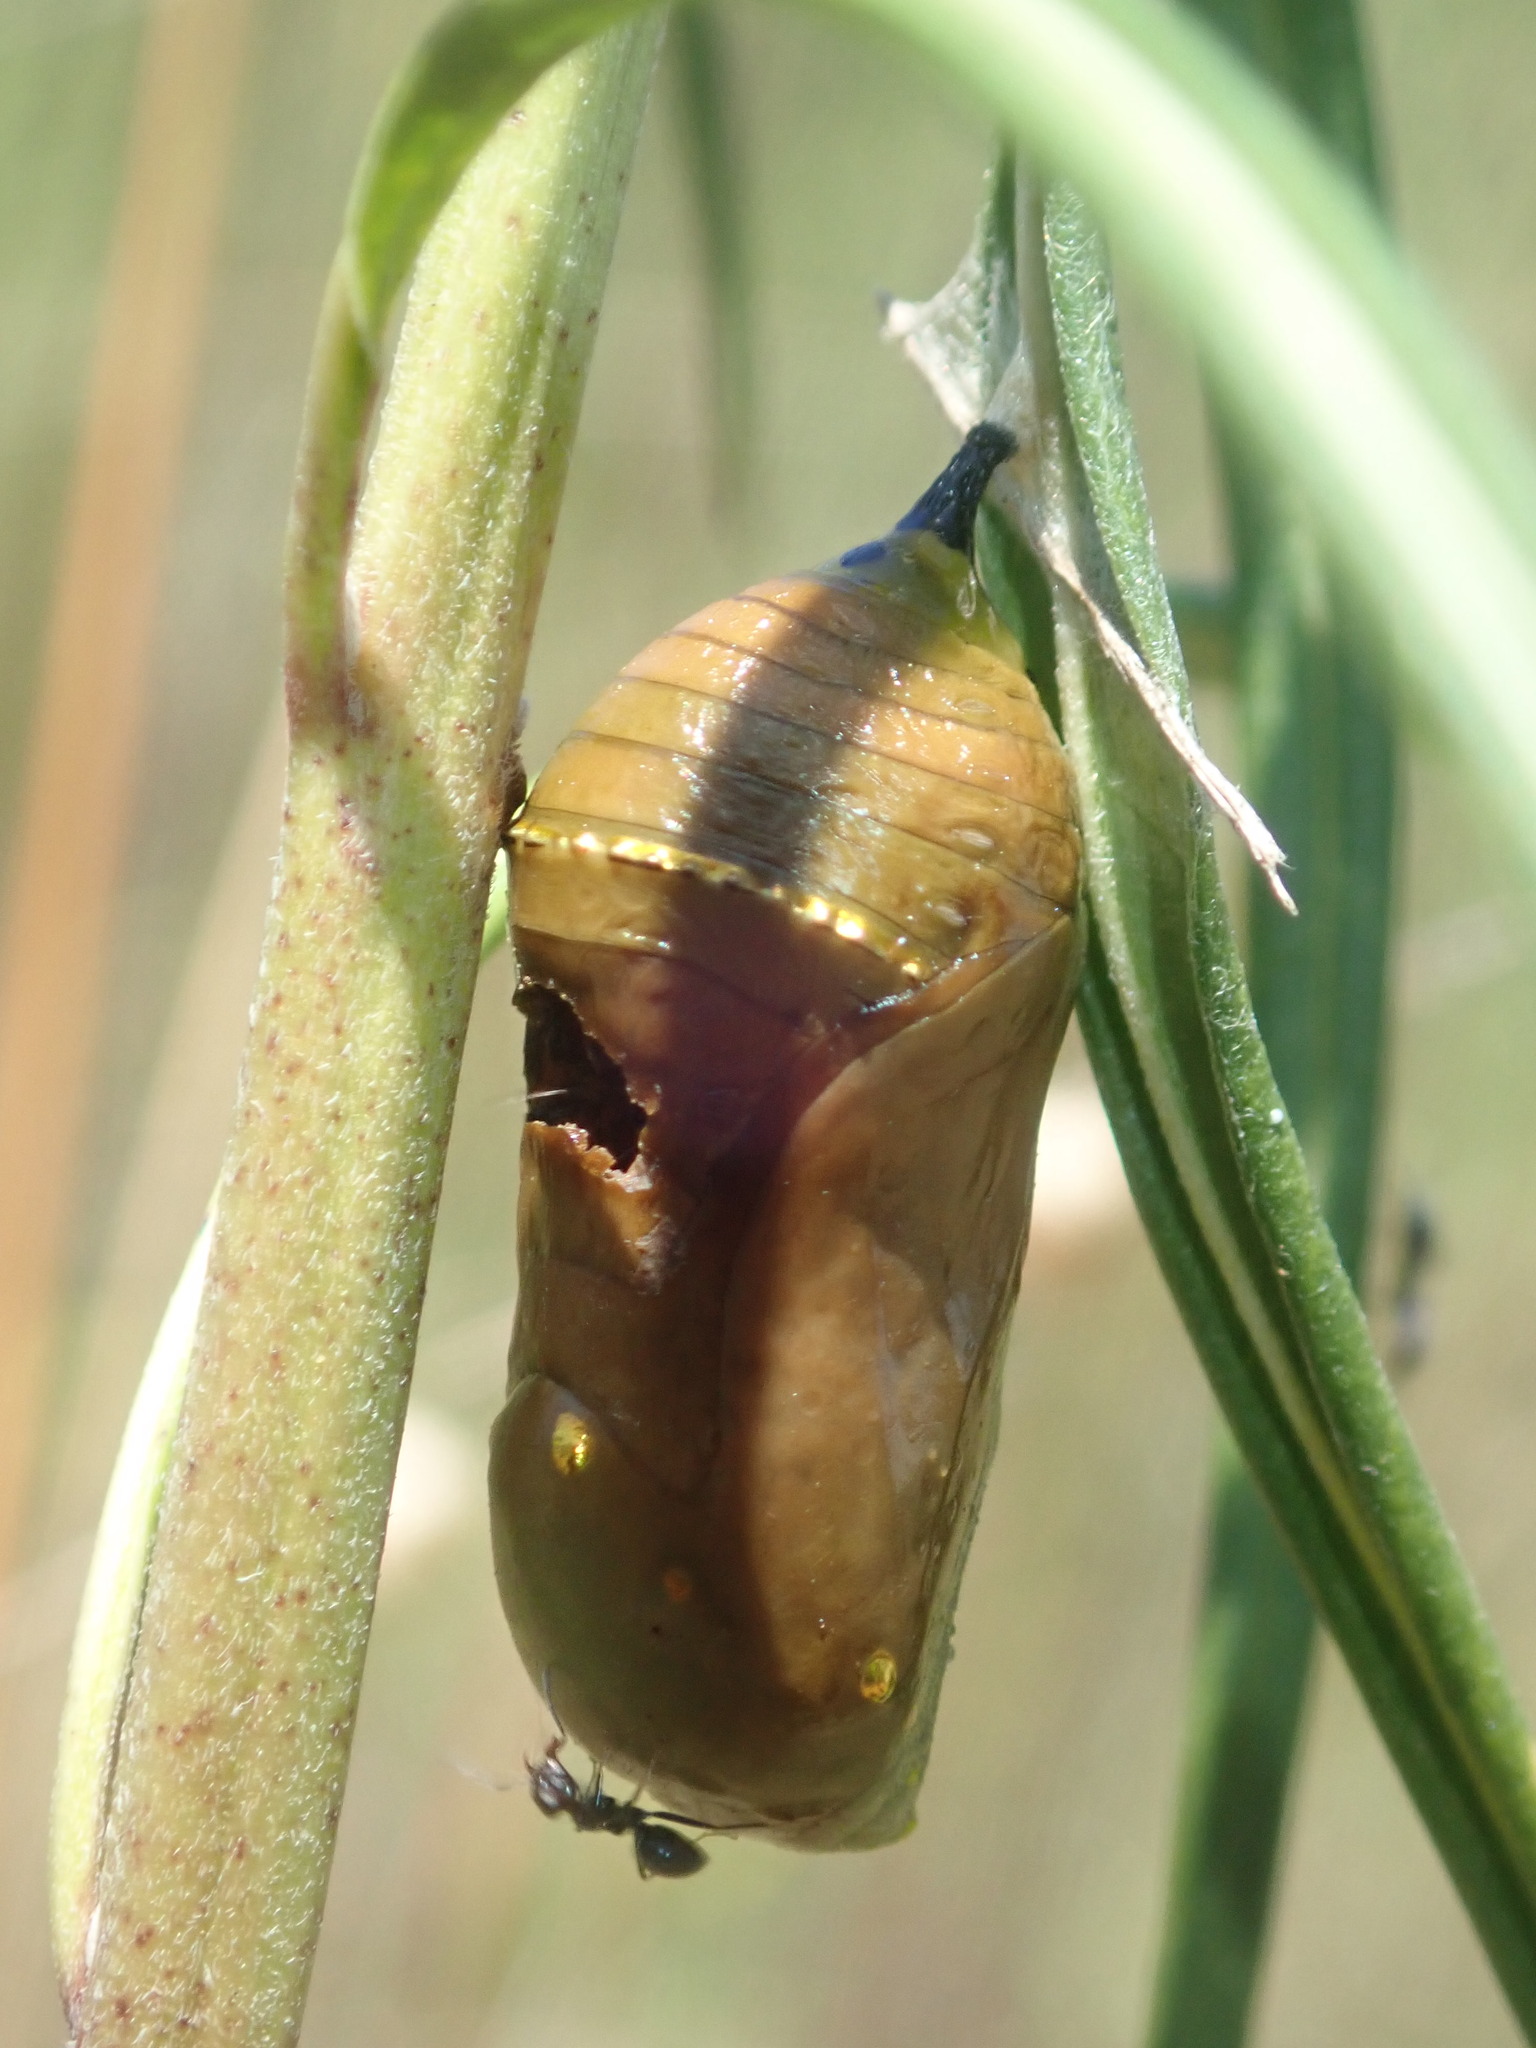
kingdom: Animalia
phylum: Arthropoda
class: Insecta
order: Lepidoptera
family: Nymphalidae
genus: Danaus
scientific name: Danaus plexippus
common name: Monarch
